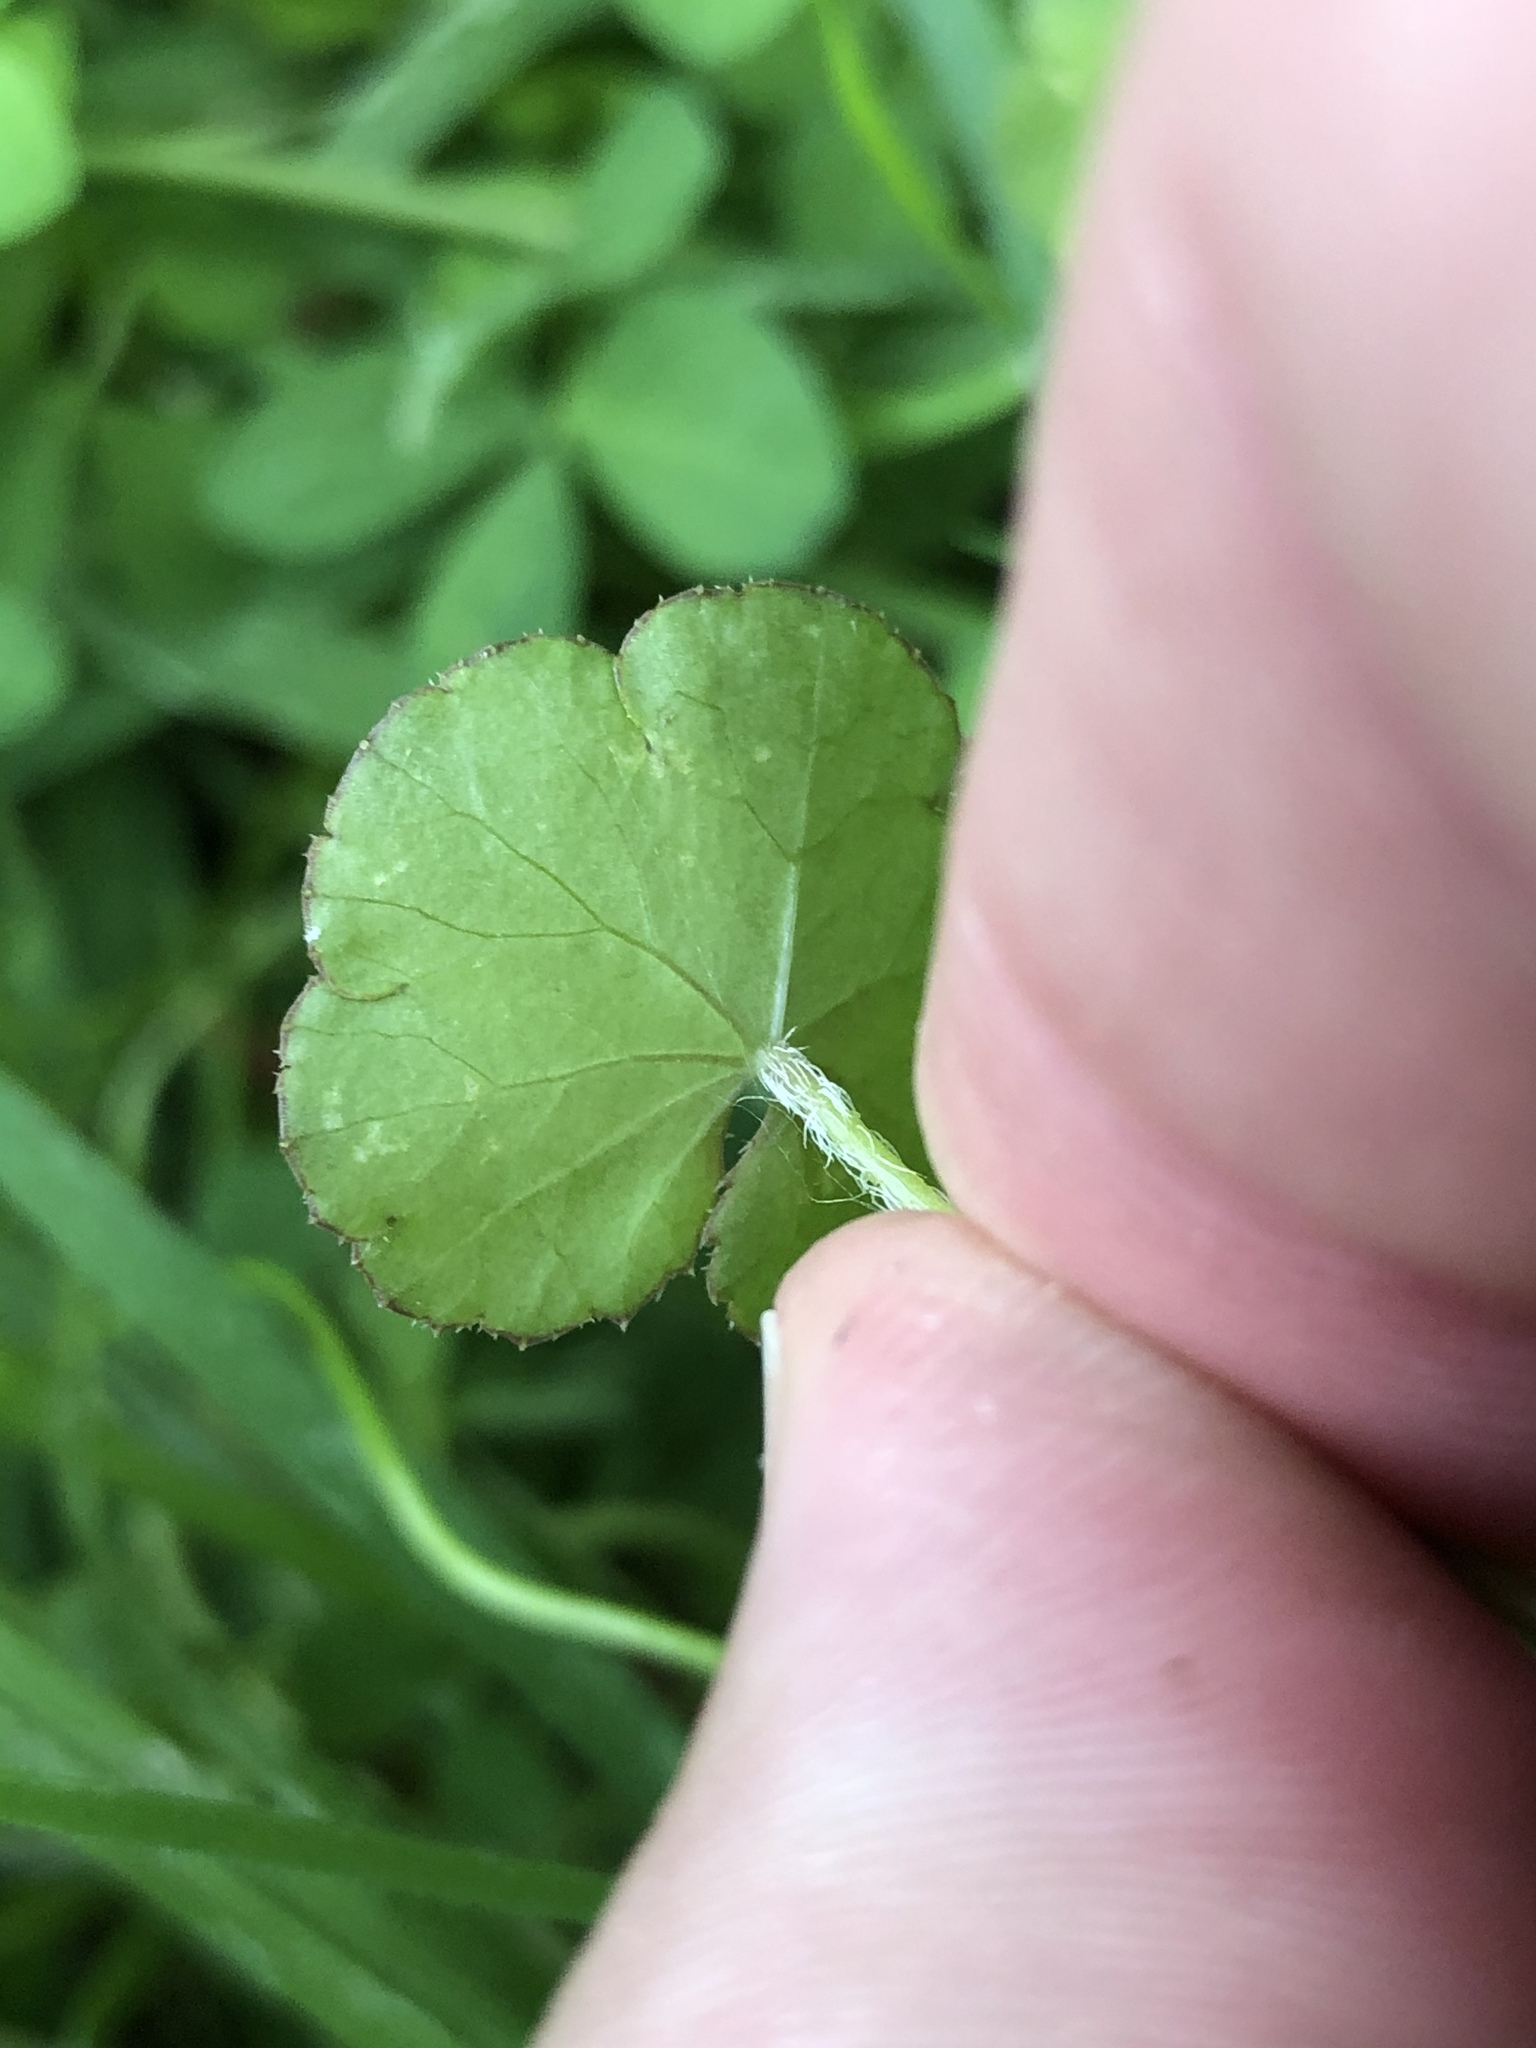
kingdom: Plantae
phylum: Tracheophyta
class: Magnoliopsida
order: Apiales
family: Araliaceae
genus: Hydrocotyle
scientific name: Hydrocotyle novae-zeelandiae
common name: New zealand pennywort
